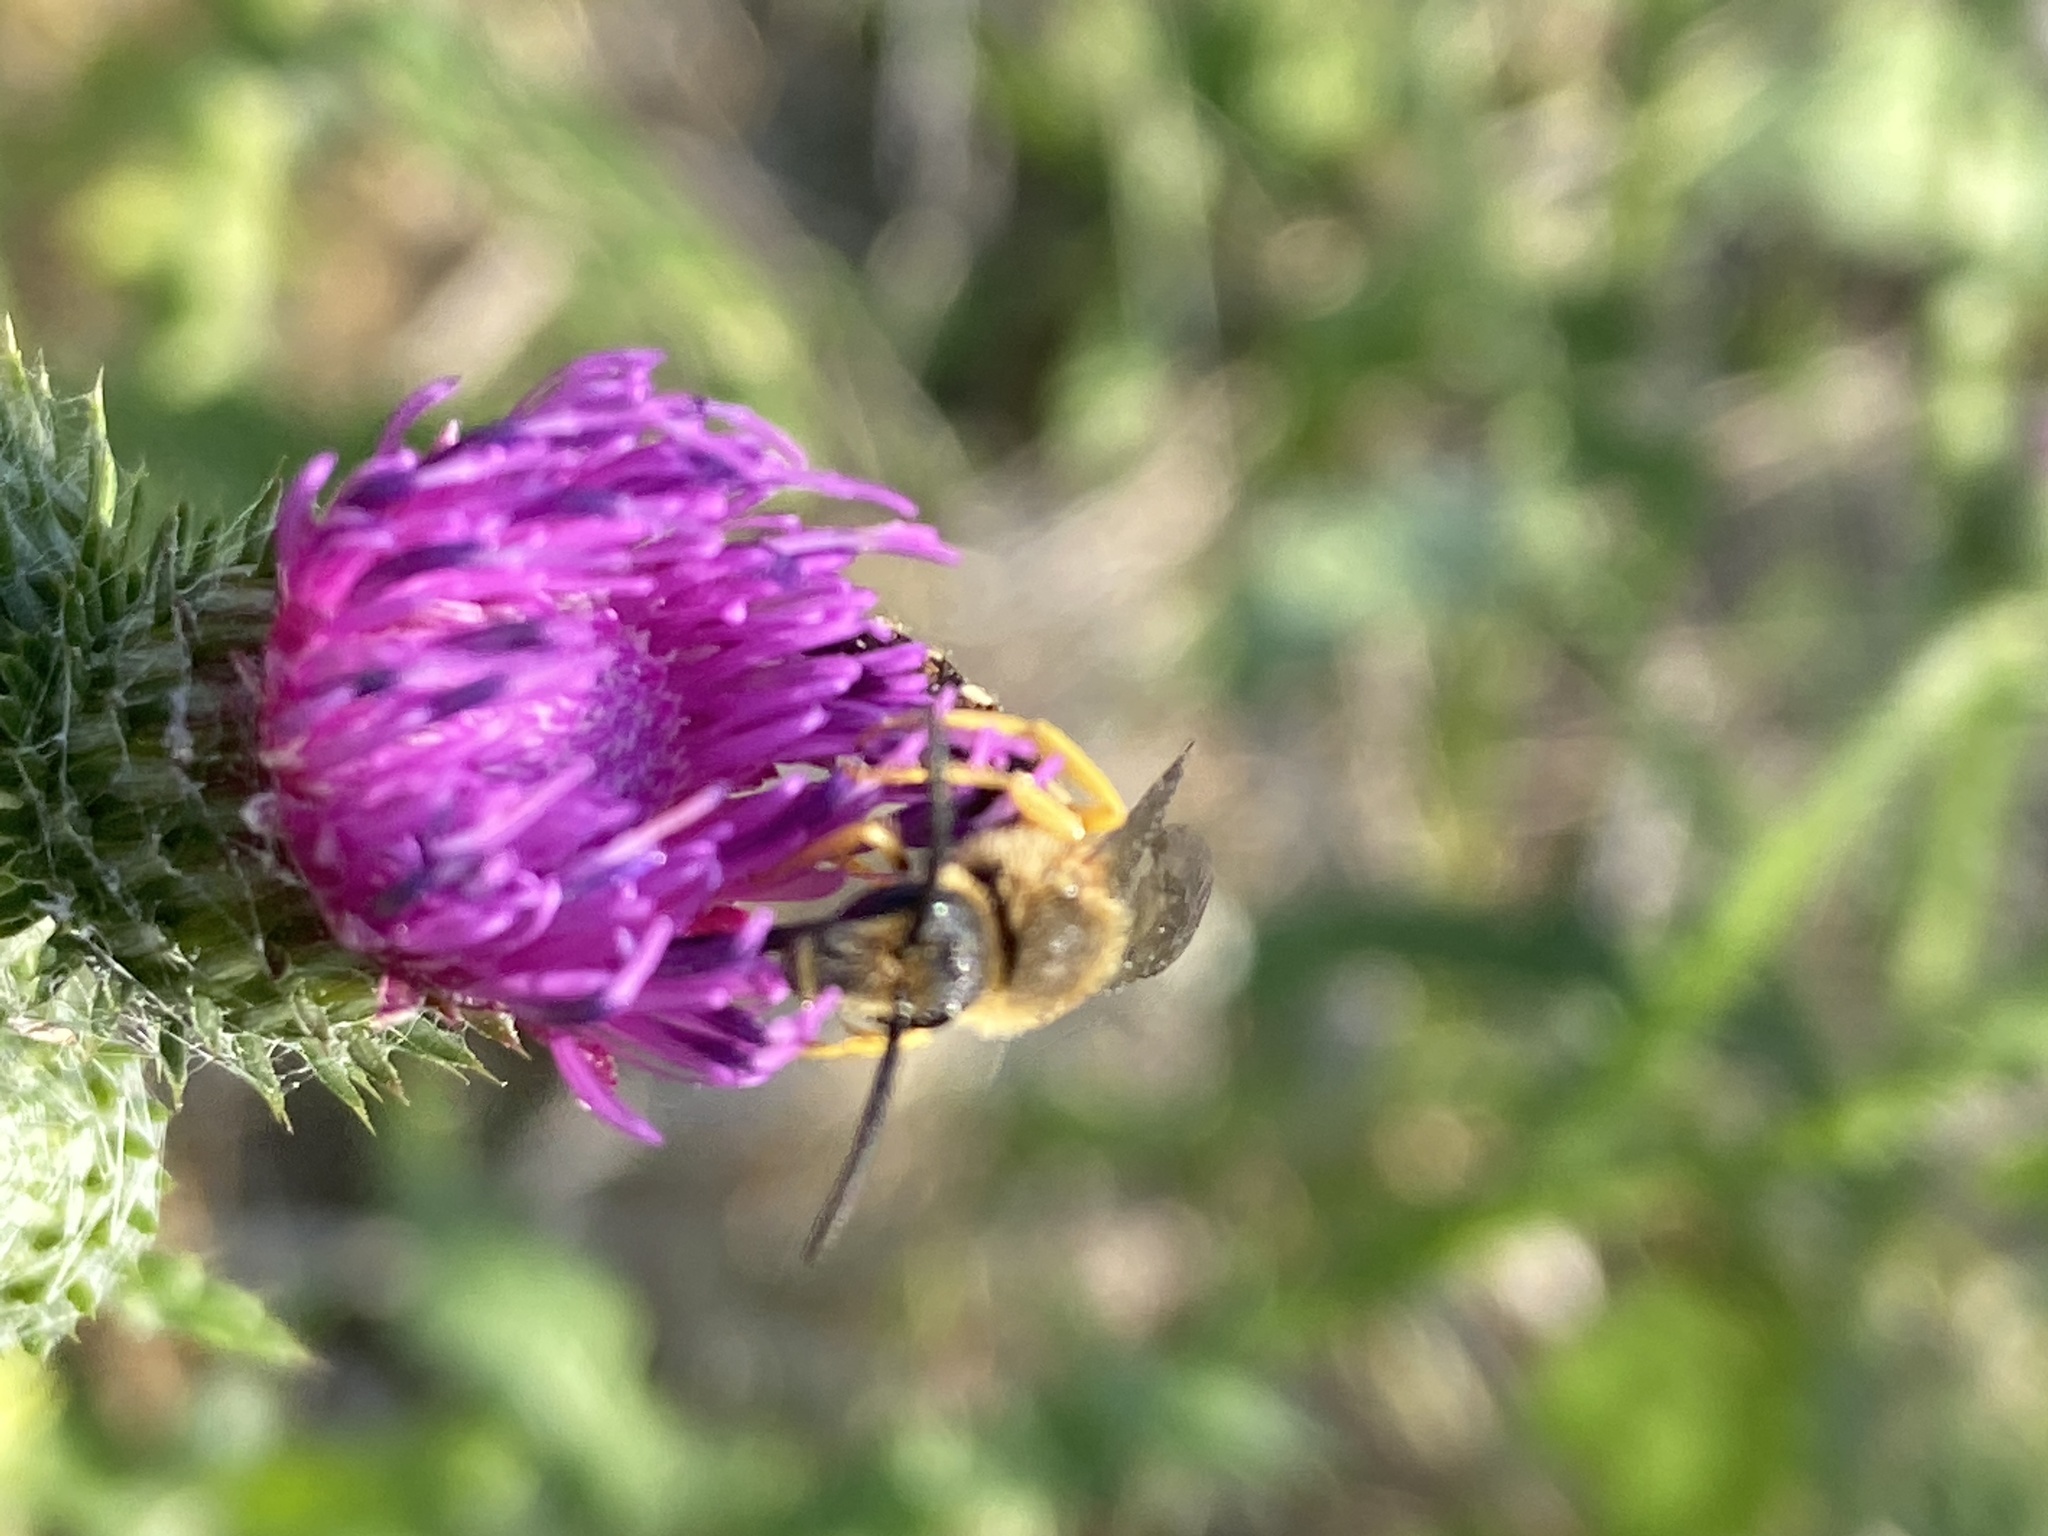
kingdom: Animalia
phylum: Arthropoda
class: Insecta
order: Hymenoptera
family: Halictidae
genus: Halictus
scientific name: Halictus scabiosae
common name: Great banded furrow bee
